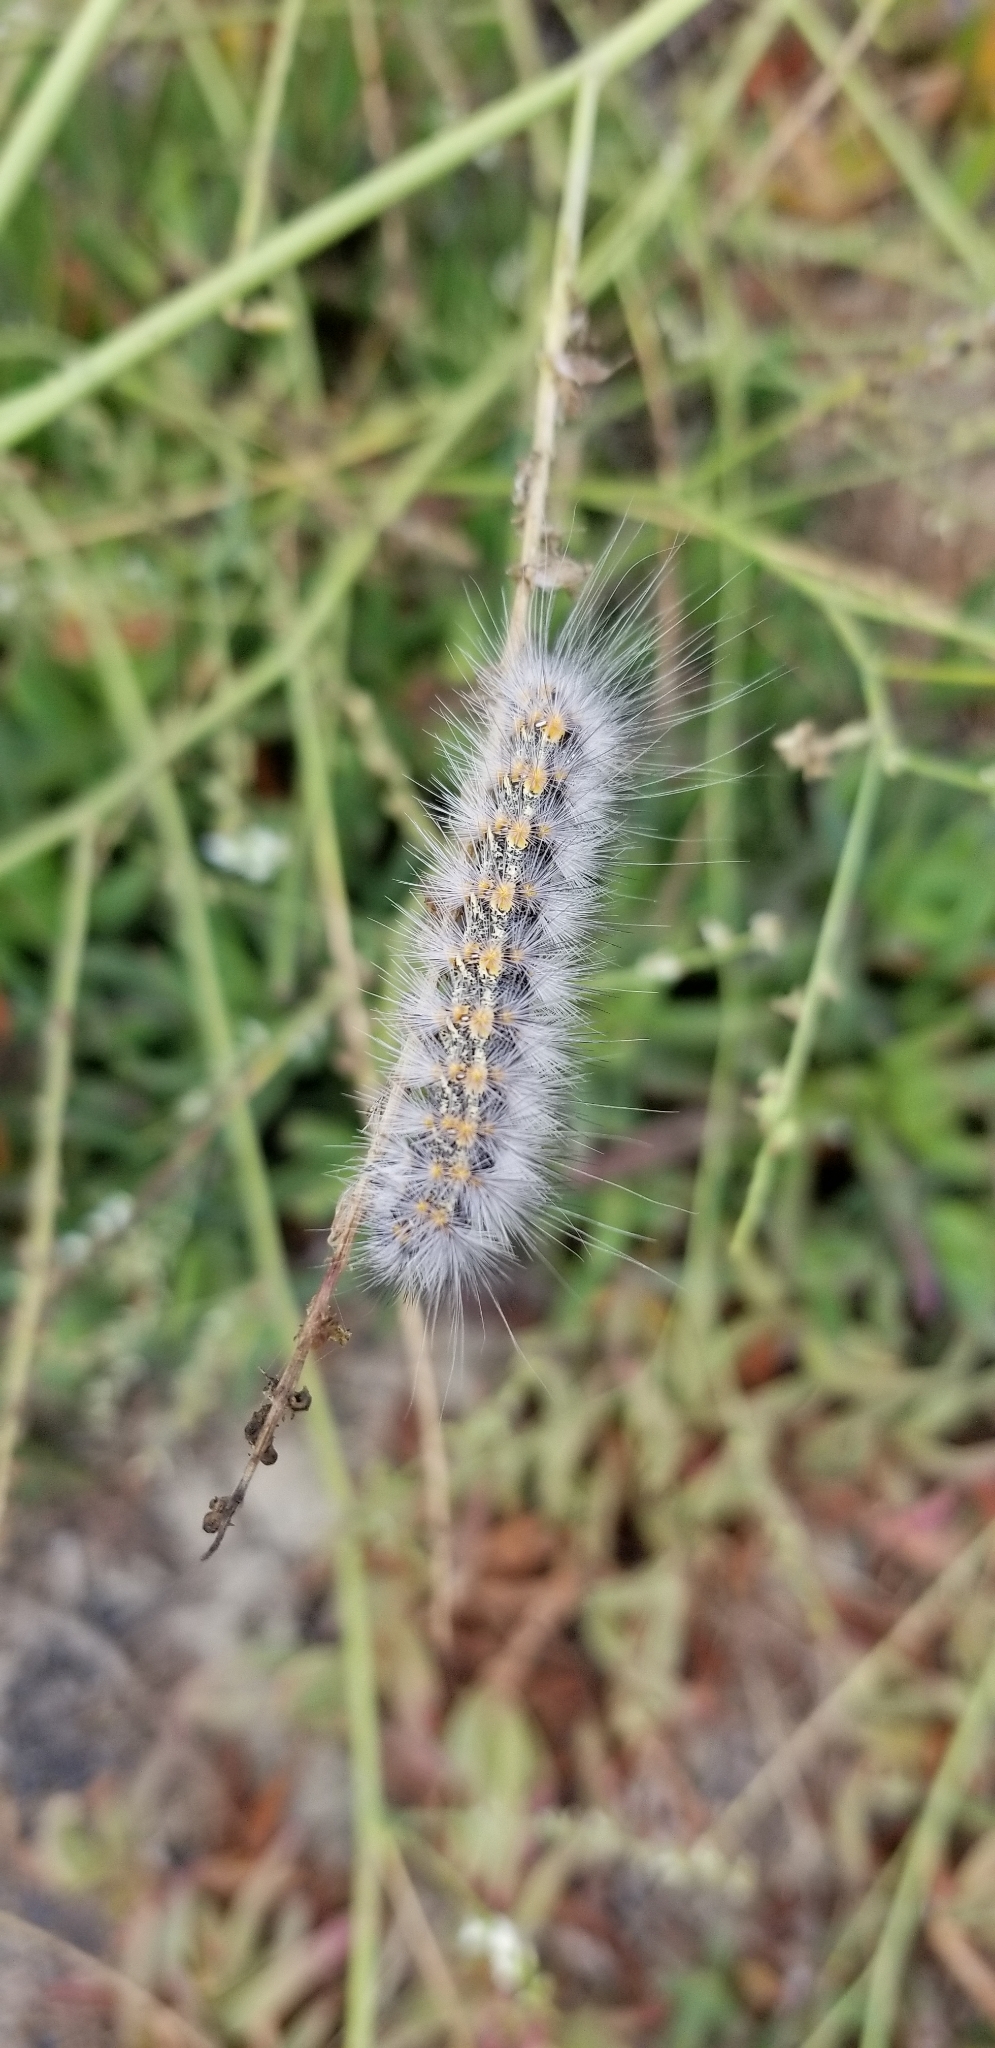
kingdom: Animalia
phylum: Arthropoda
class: Insecta
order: Lepidoptera
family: Erebidae
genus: Estigmene
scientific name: Estigmene acrea
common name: Salt marsh moth
